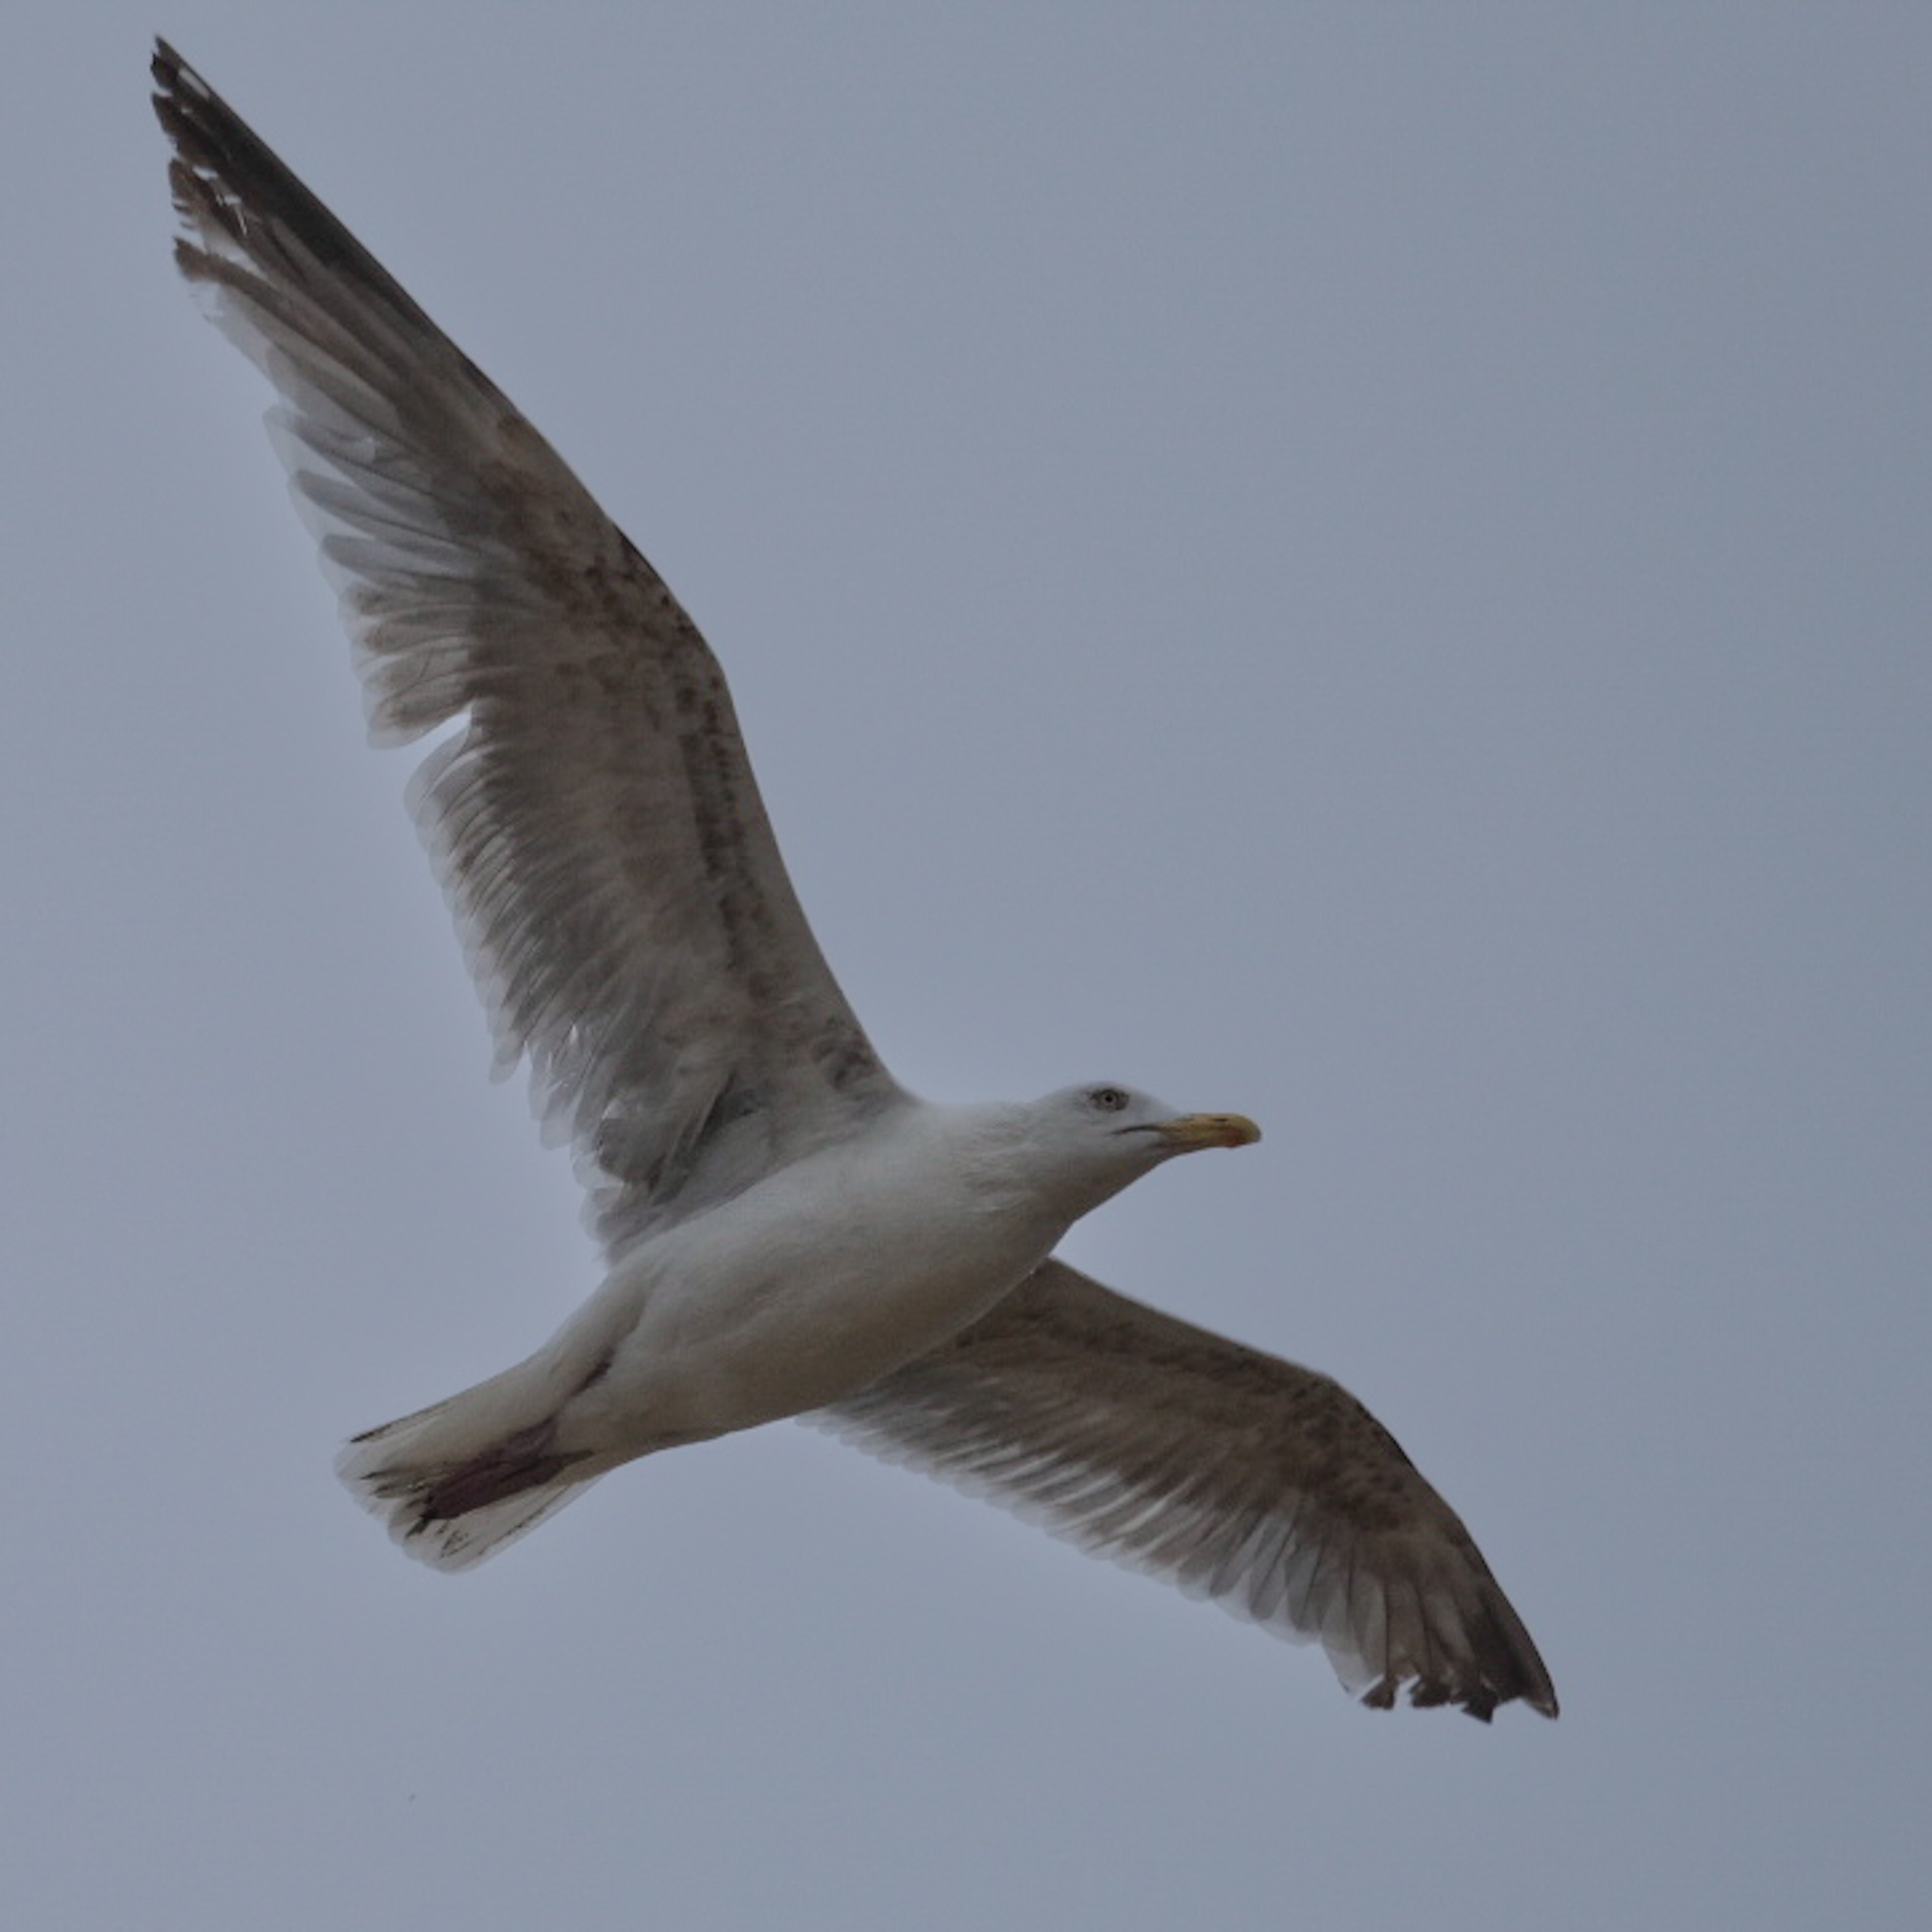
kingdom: Animalia
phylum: Chordata
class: Aves
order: Charadriiformes
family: Laridae
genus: Larus
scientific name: Larus argentatus
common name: Herring gull
